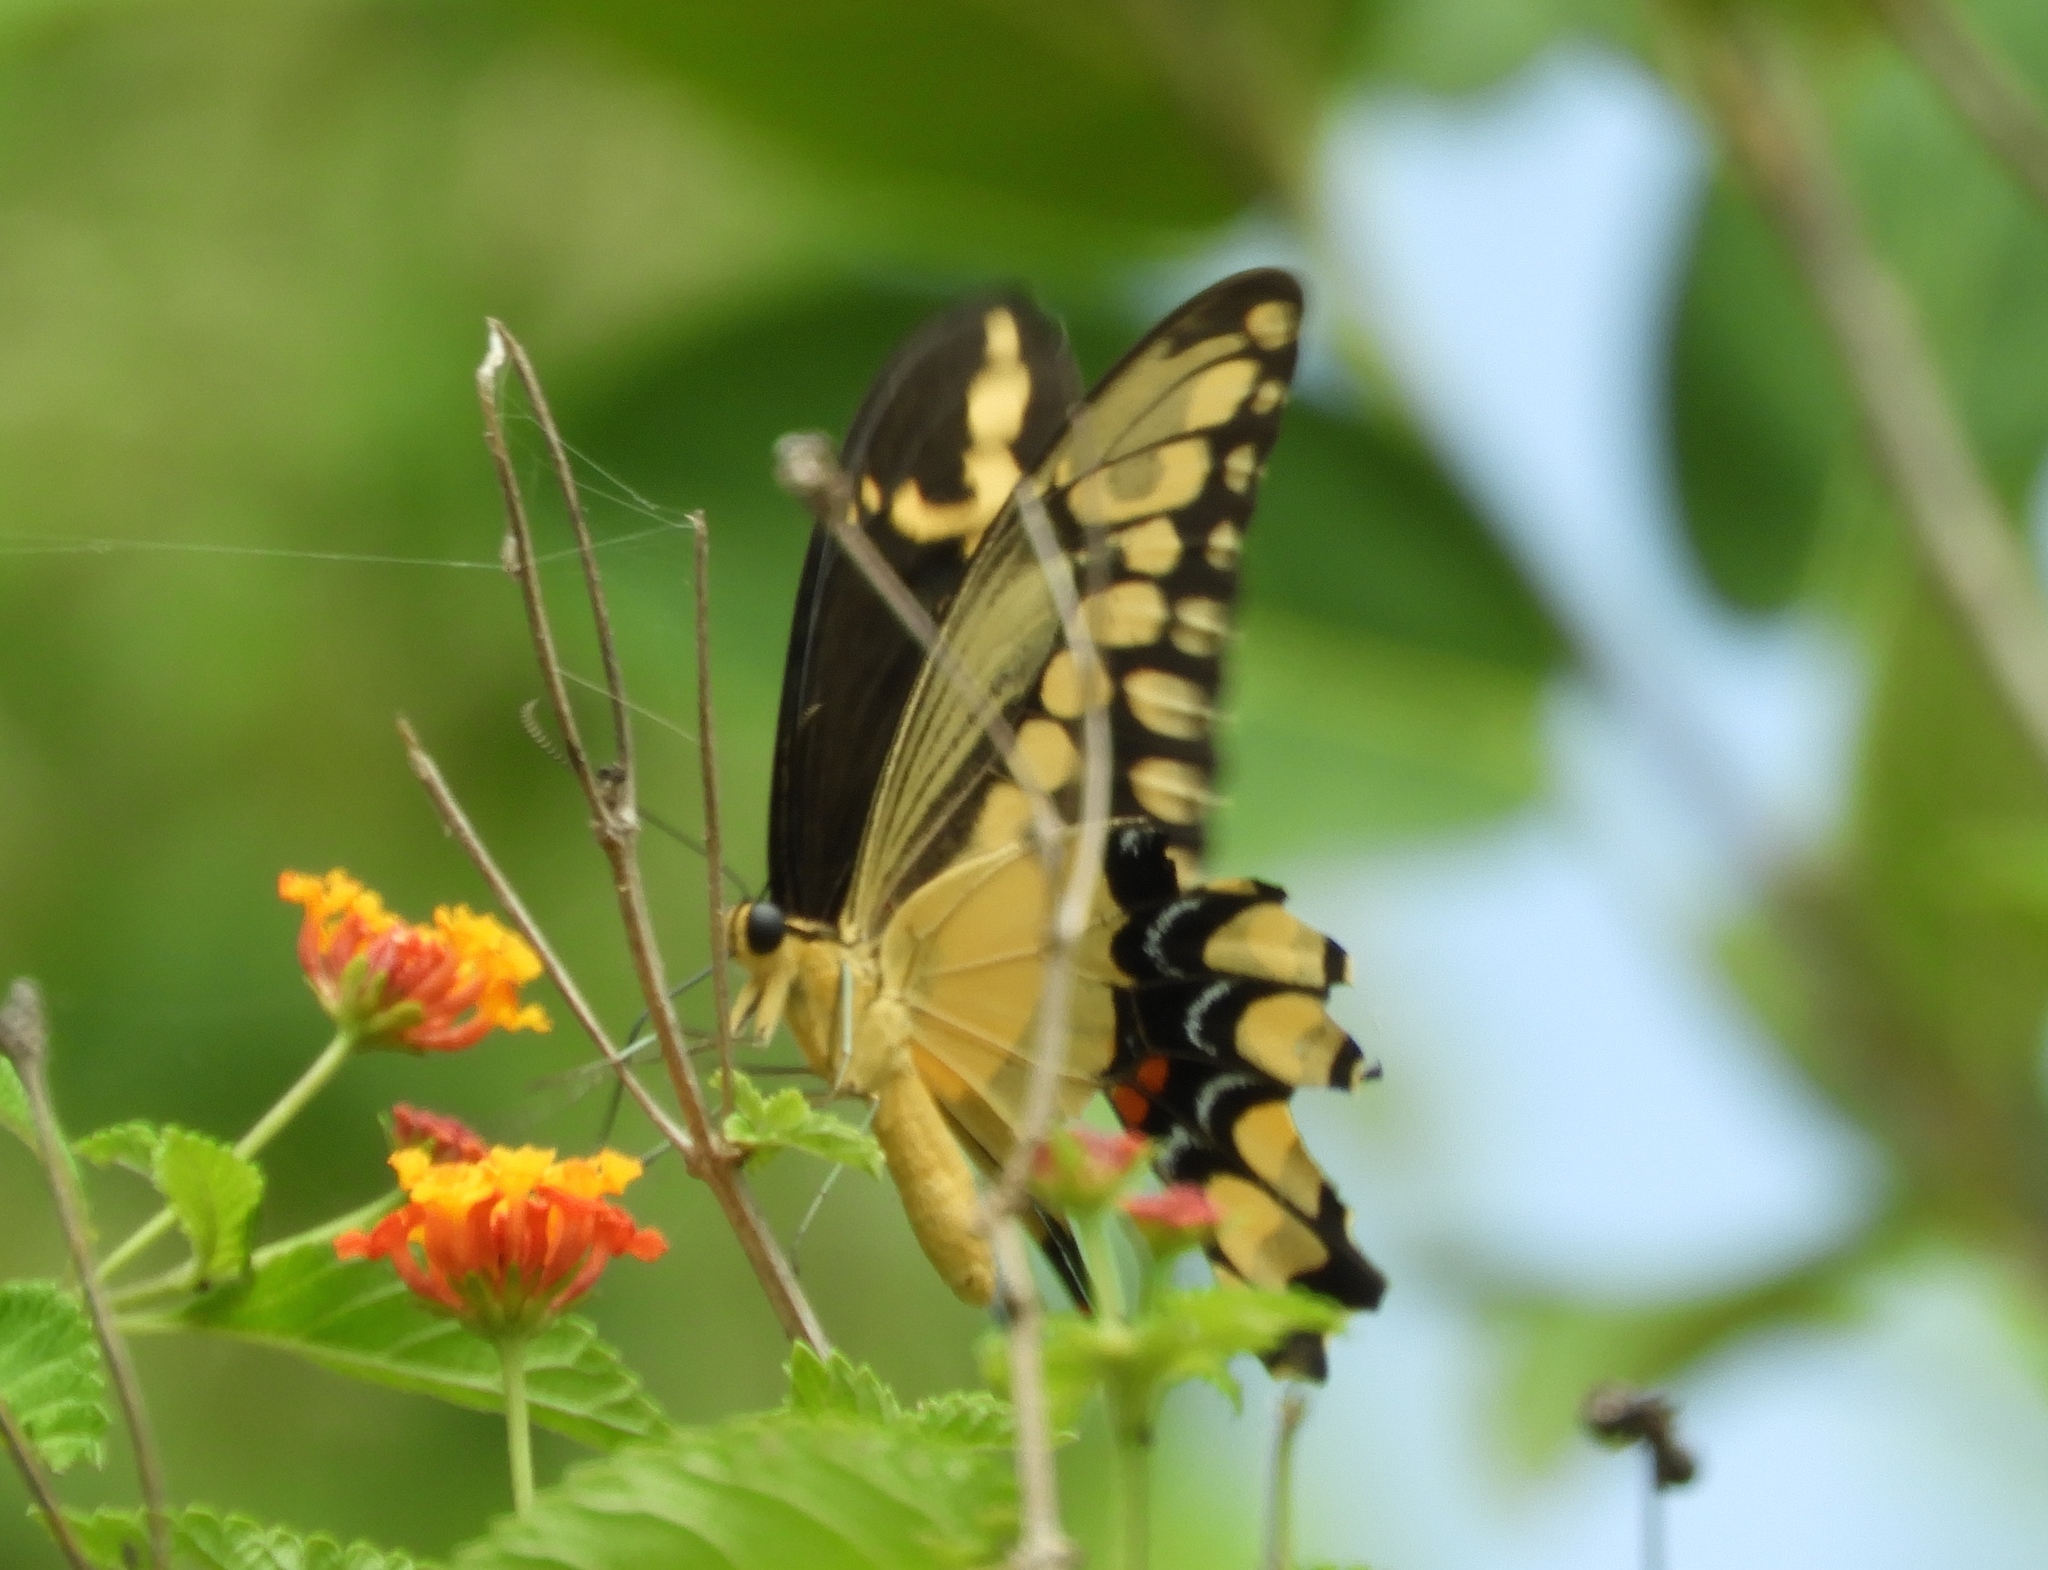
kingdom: Animalia
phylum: Arthropoda
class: Insecta
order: Lepidoptera
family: Papilionidae
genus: Papilio
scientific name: Papilio rumiko
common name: Western giant swallowtail
